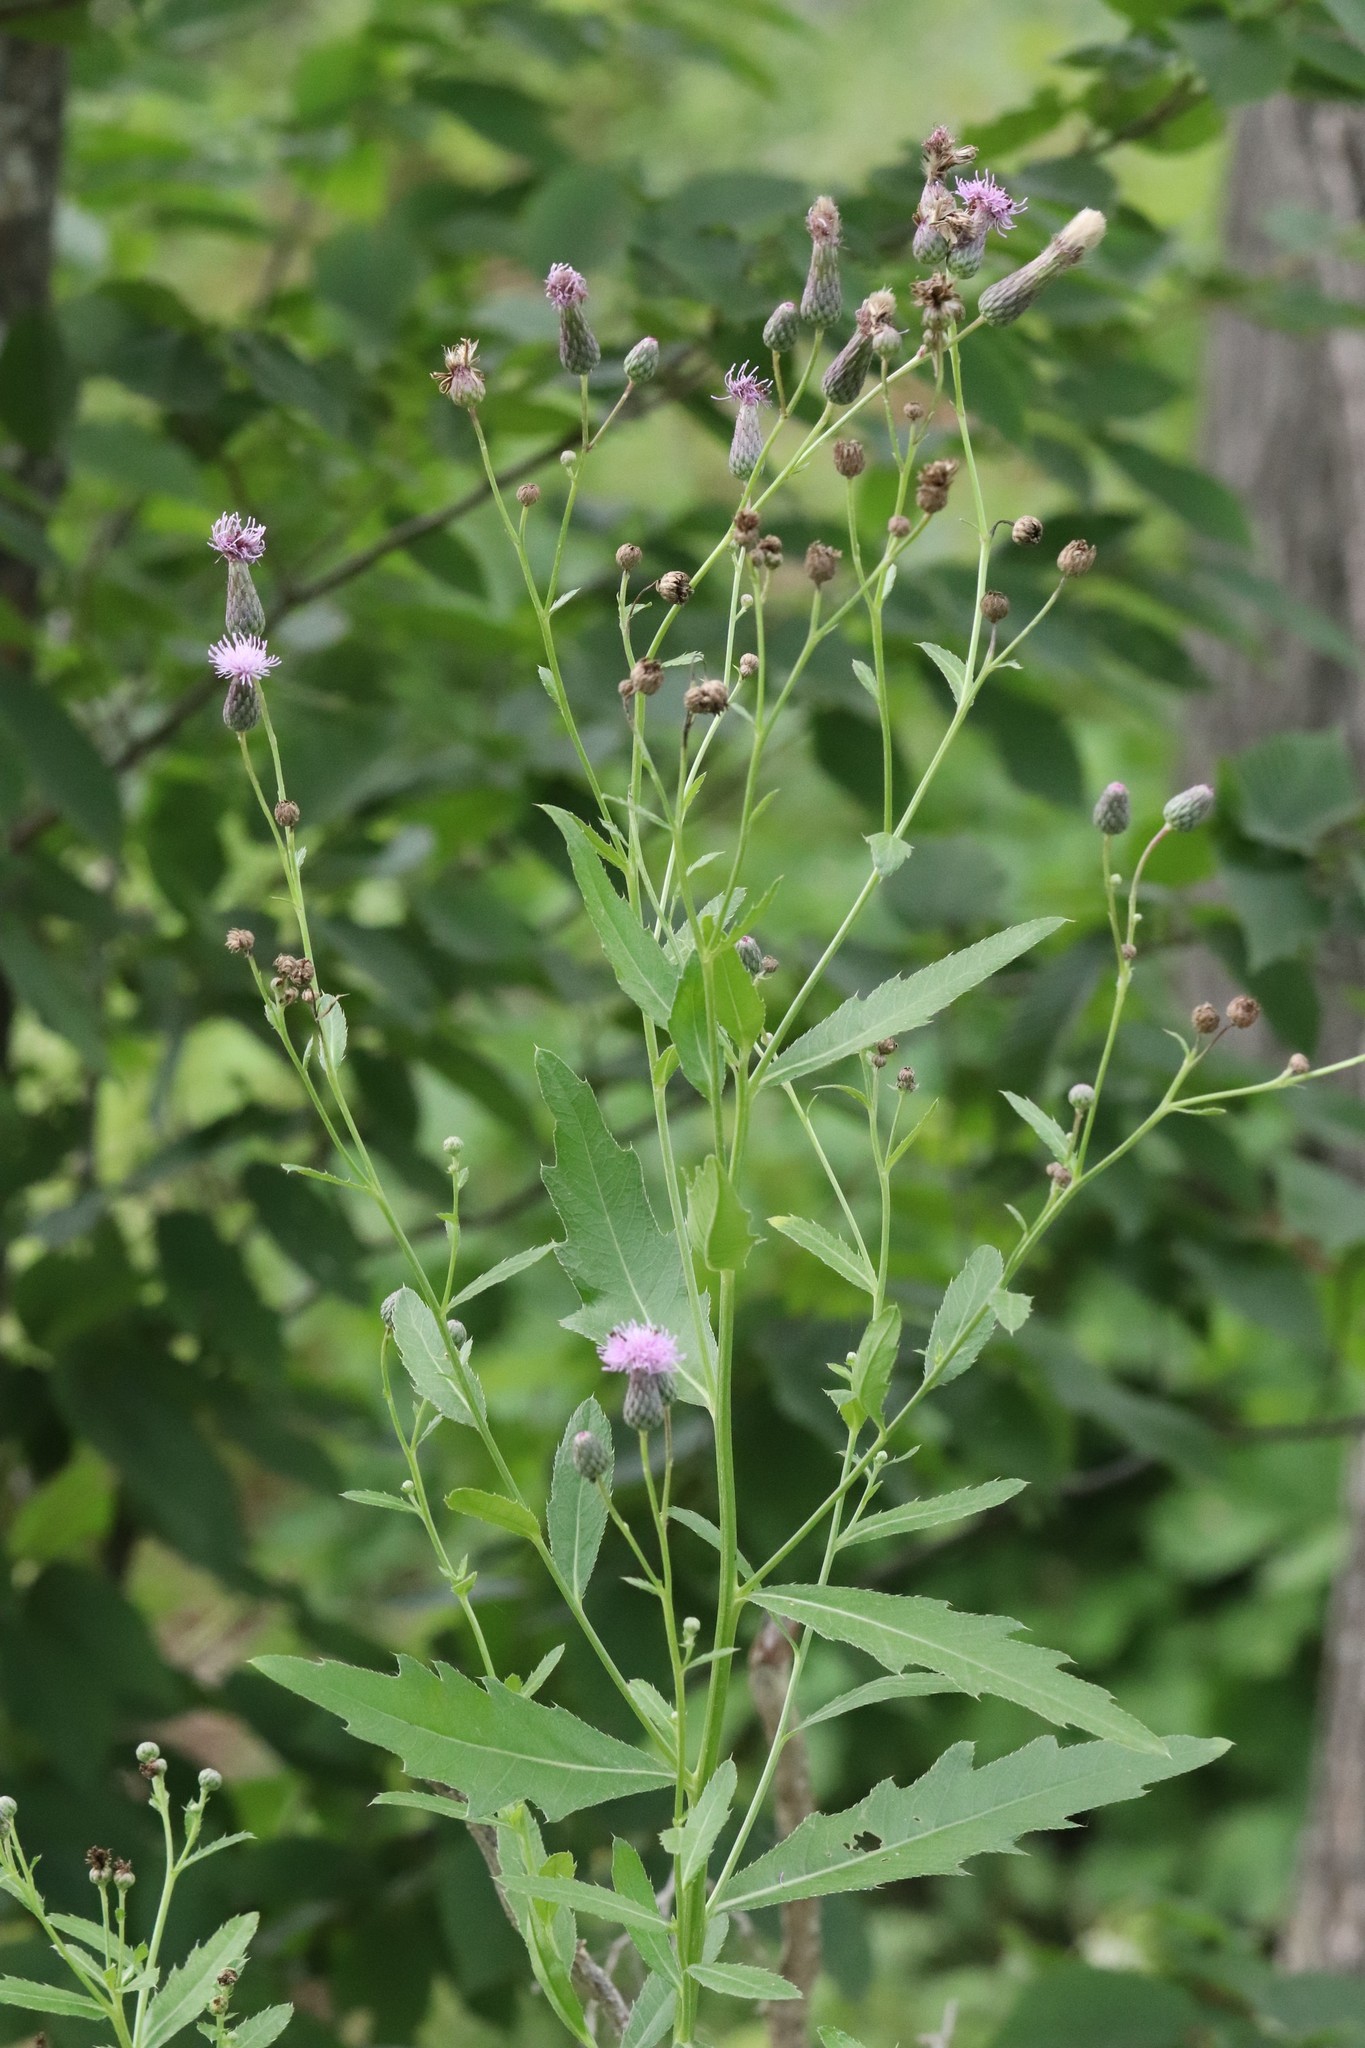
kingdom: Plantae
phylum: Tracheophyta
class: Magnoliopsida
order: Asterales
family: Asteraceae
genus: Cirsium
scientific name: Cirsium arvense
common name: Creeping thistle
